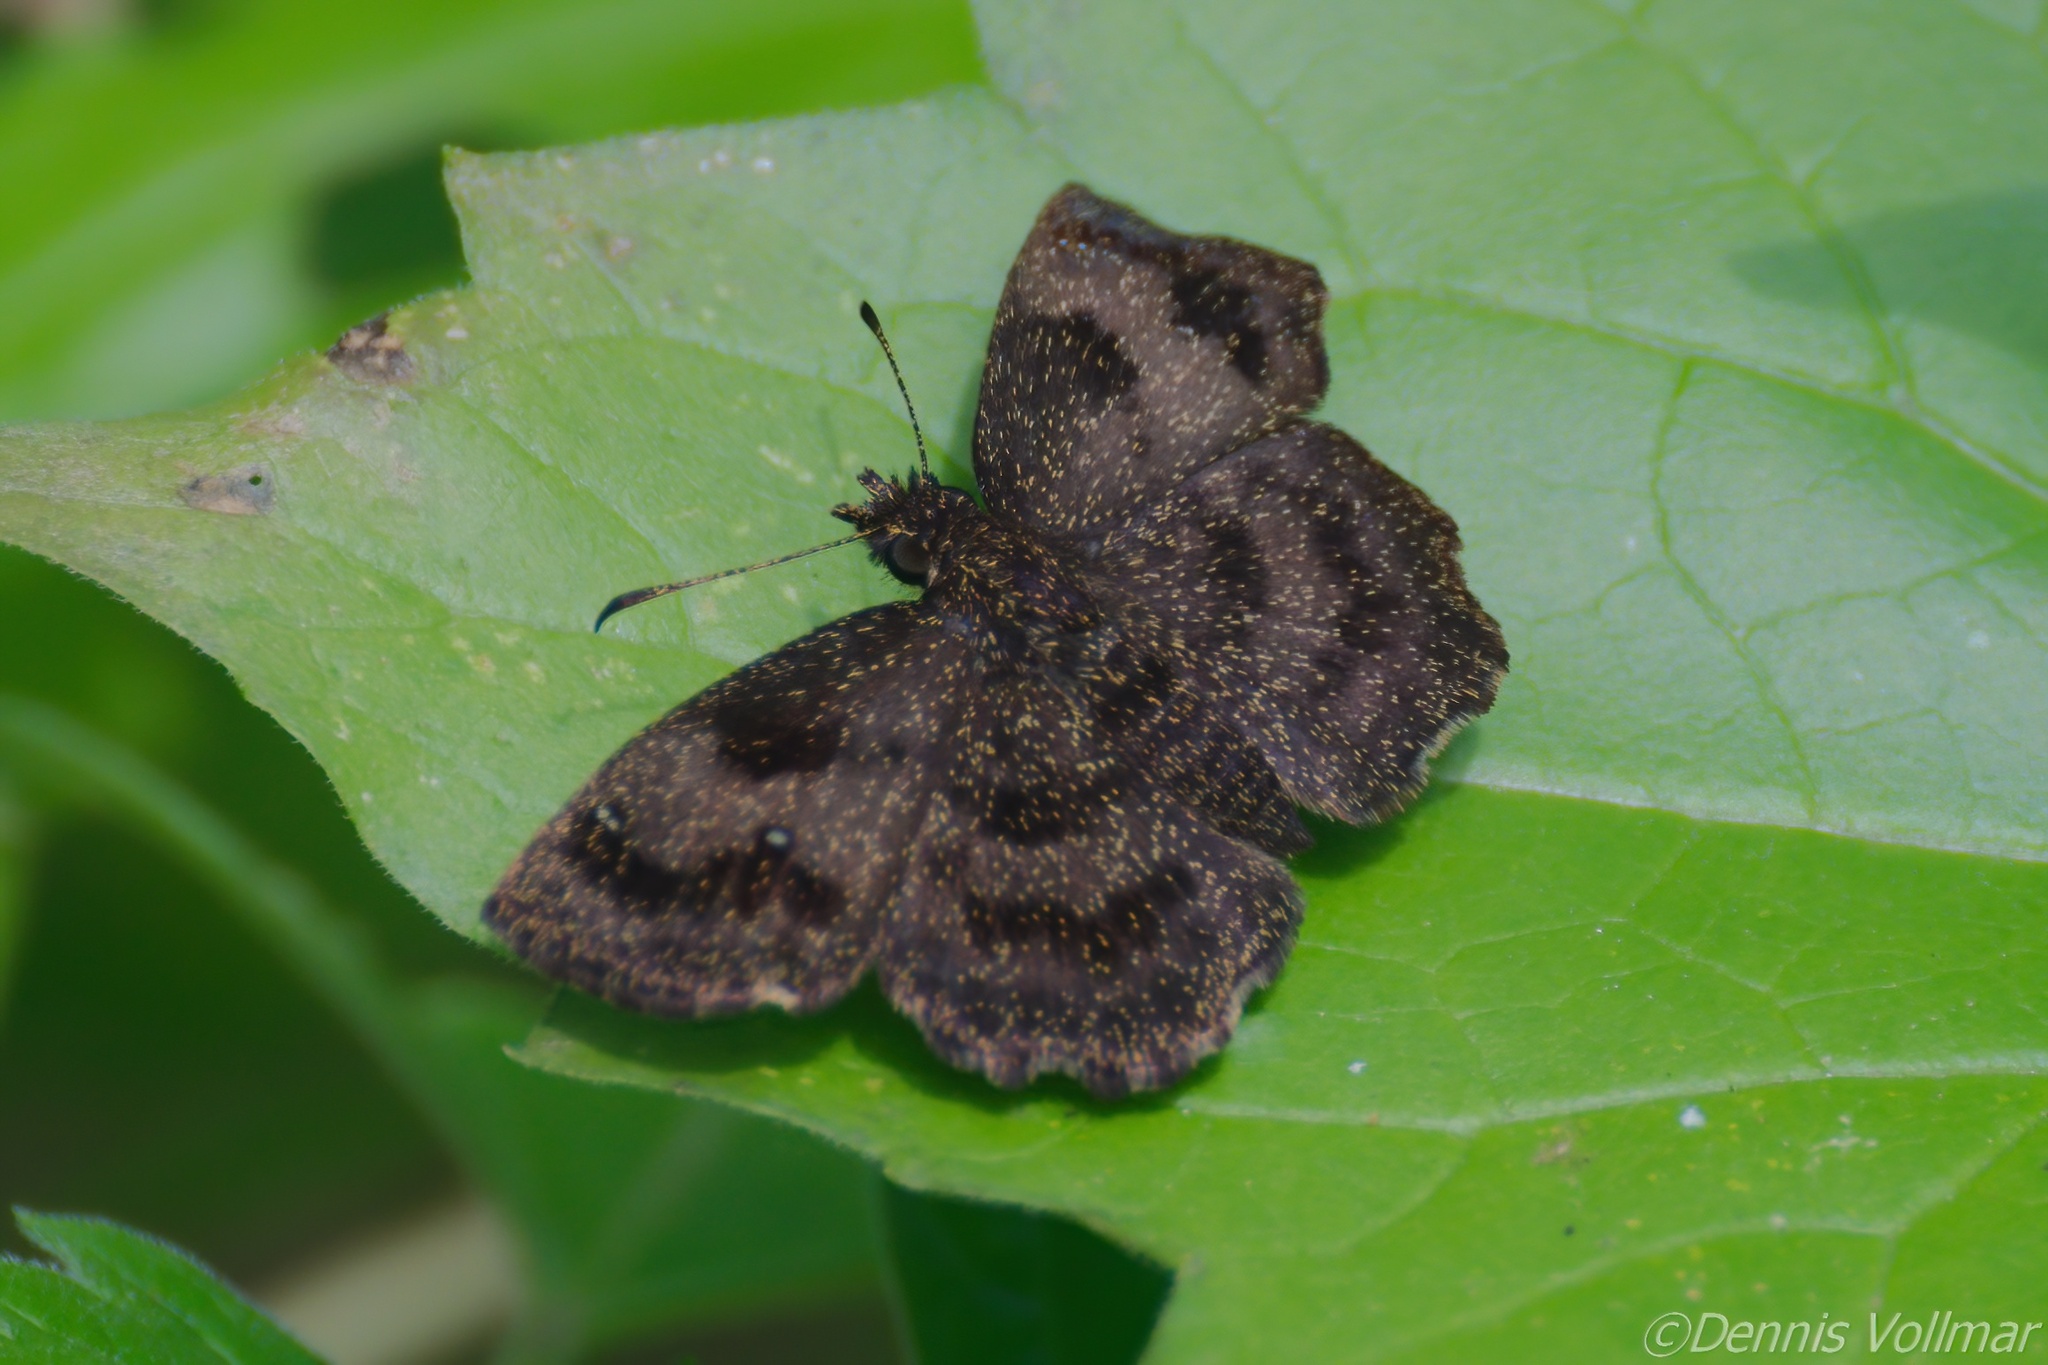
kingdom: Animalia
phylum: Arthropoda
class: Insecta
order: Lepidoptera
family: Hesperiidae
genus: Staphylus
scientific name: Staphylus mazans
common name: Mazans scallopwing
